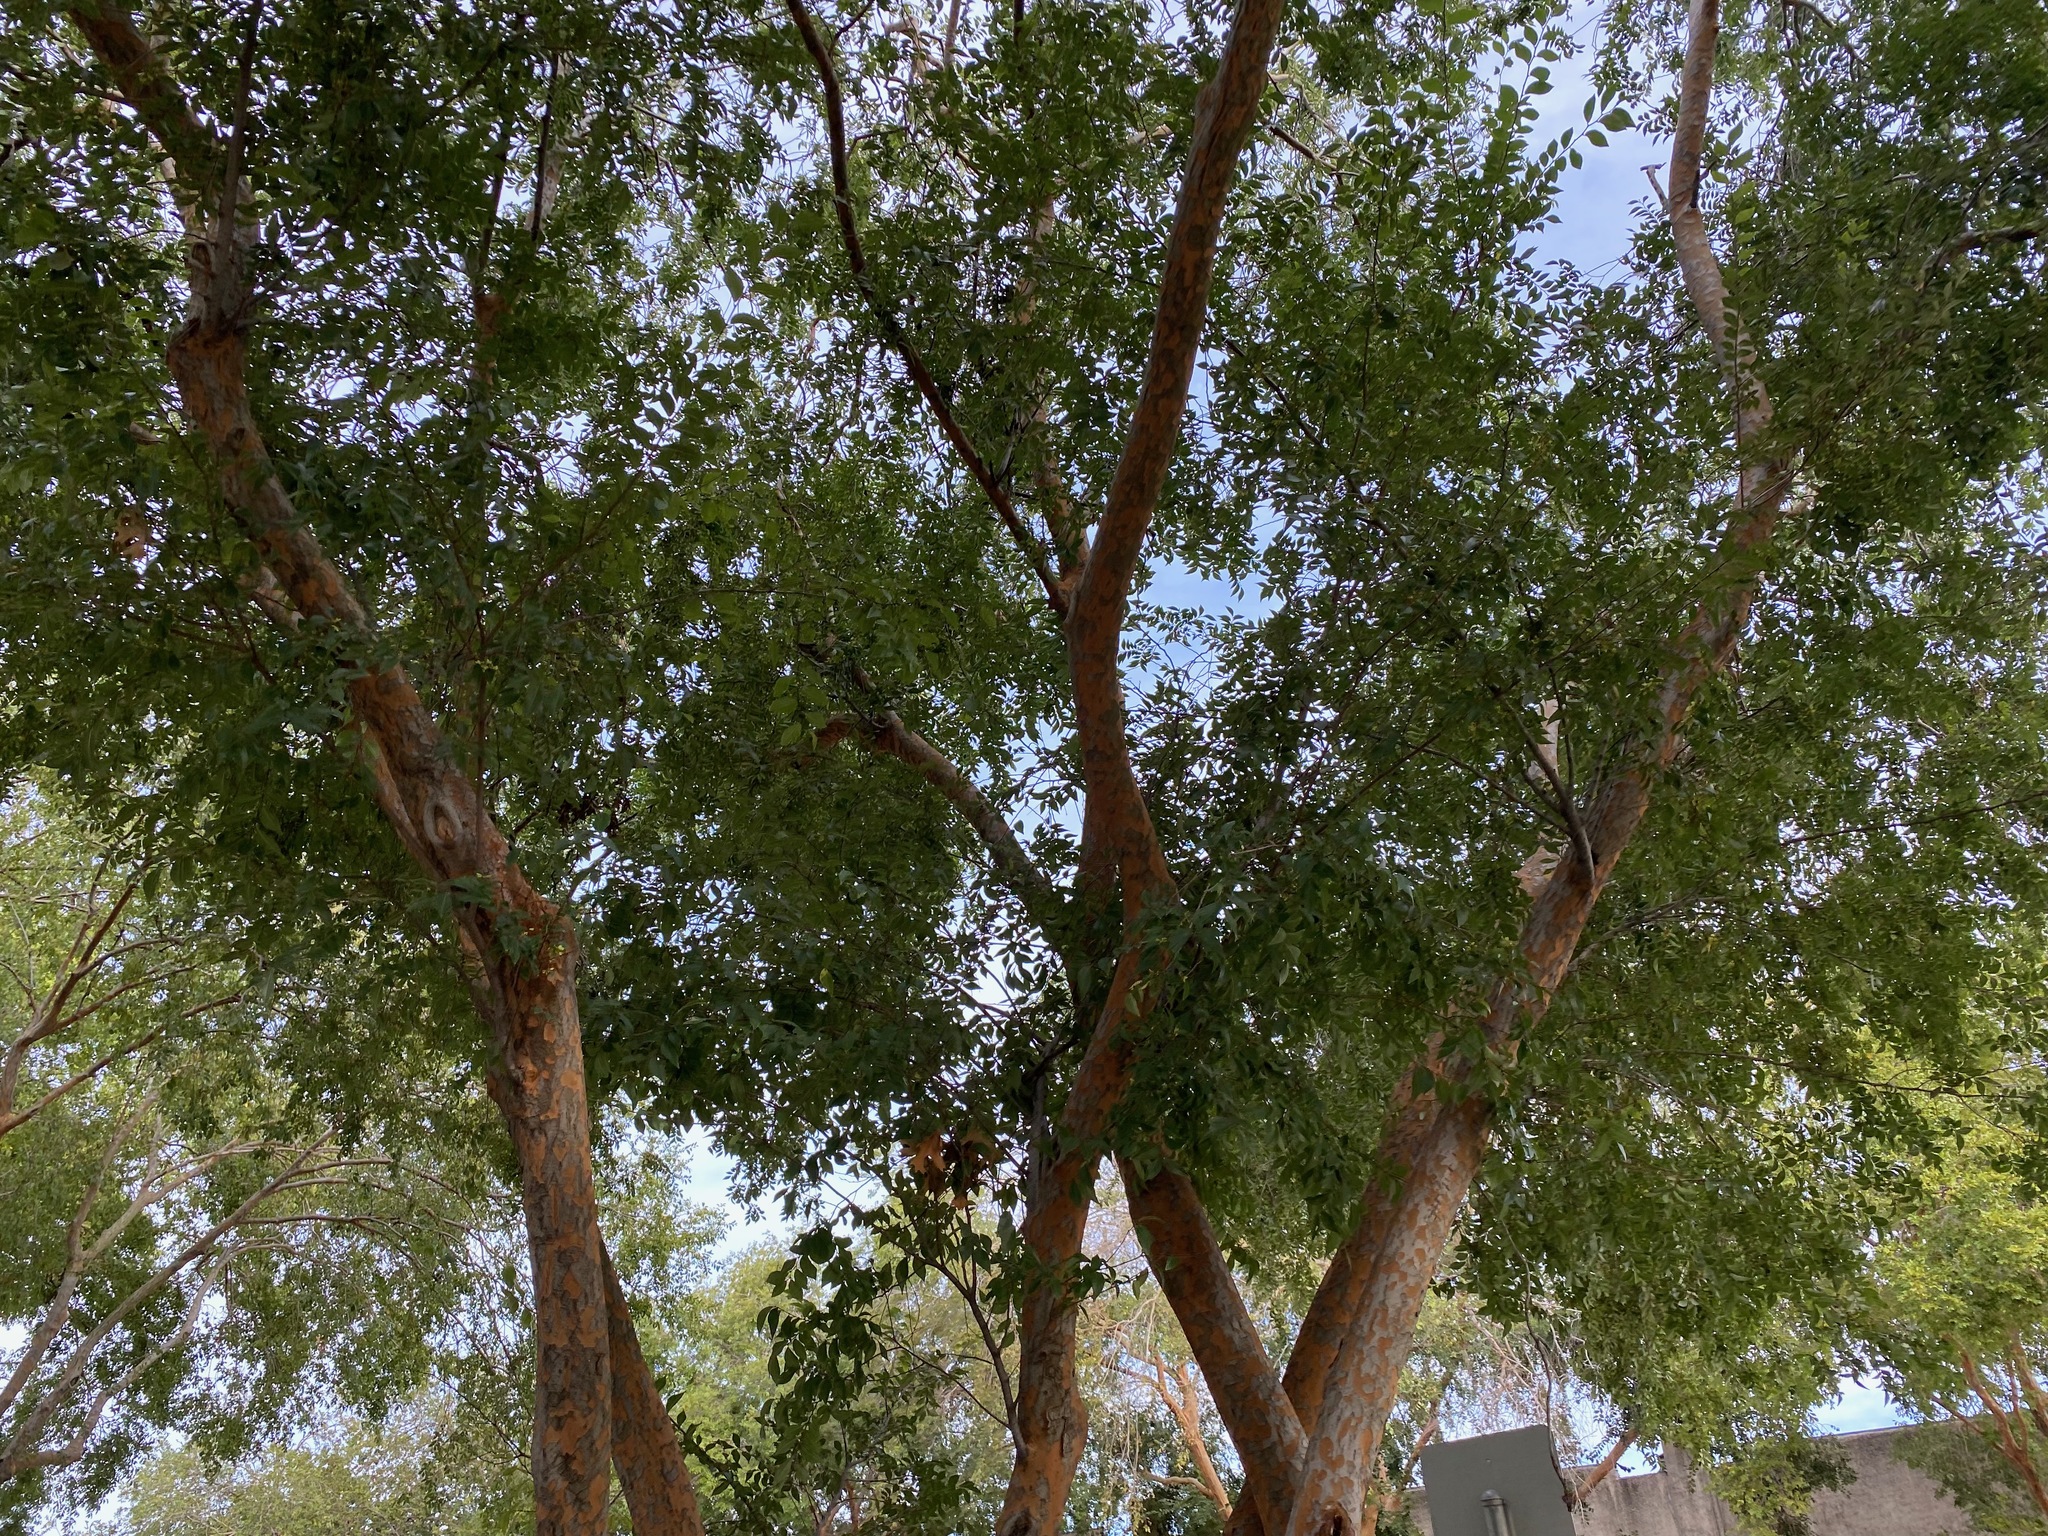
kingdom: Plantae
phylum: Tracheophyta
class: Magnoliopsida
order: Rosales
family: Ulmaceae
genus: Ulmus
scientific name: Ulmus parvifolia
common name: Chinese elm
